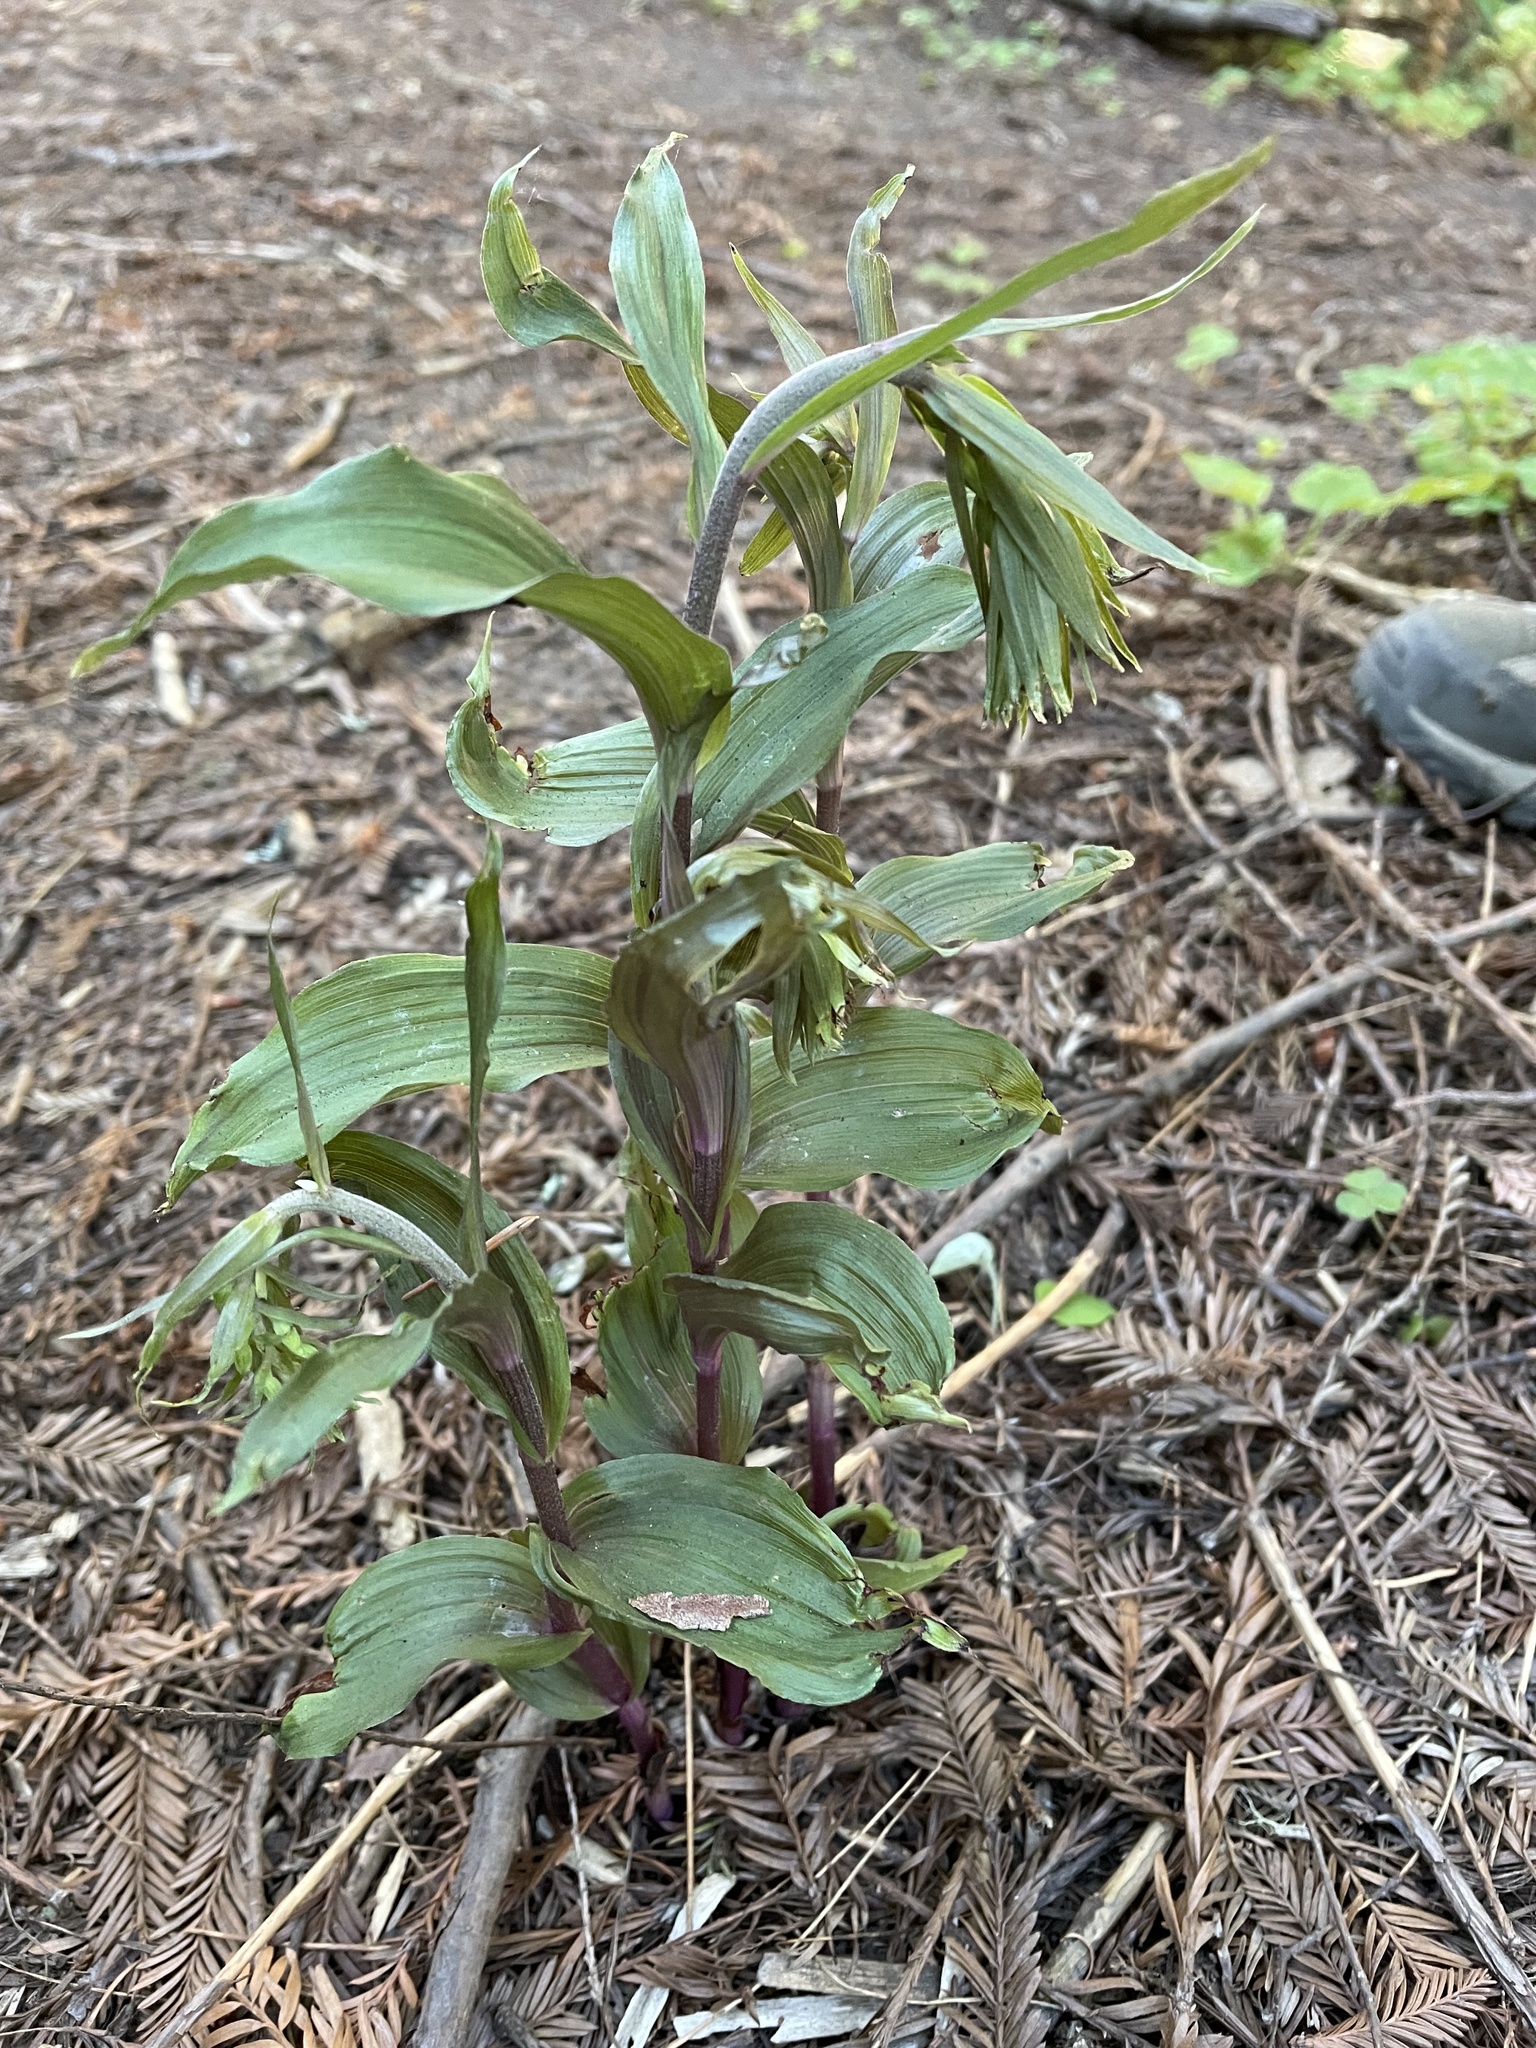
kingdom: Plantae
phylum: Tracheophyta
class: Liliopsida
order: Asparagales
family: Orchidaceae
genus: Epipactis
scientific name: Epipactis helleborine
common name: Broad-leaved helleborine
